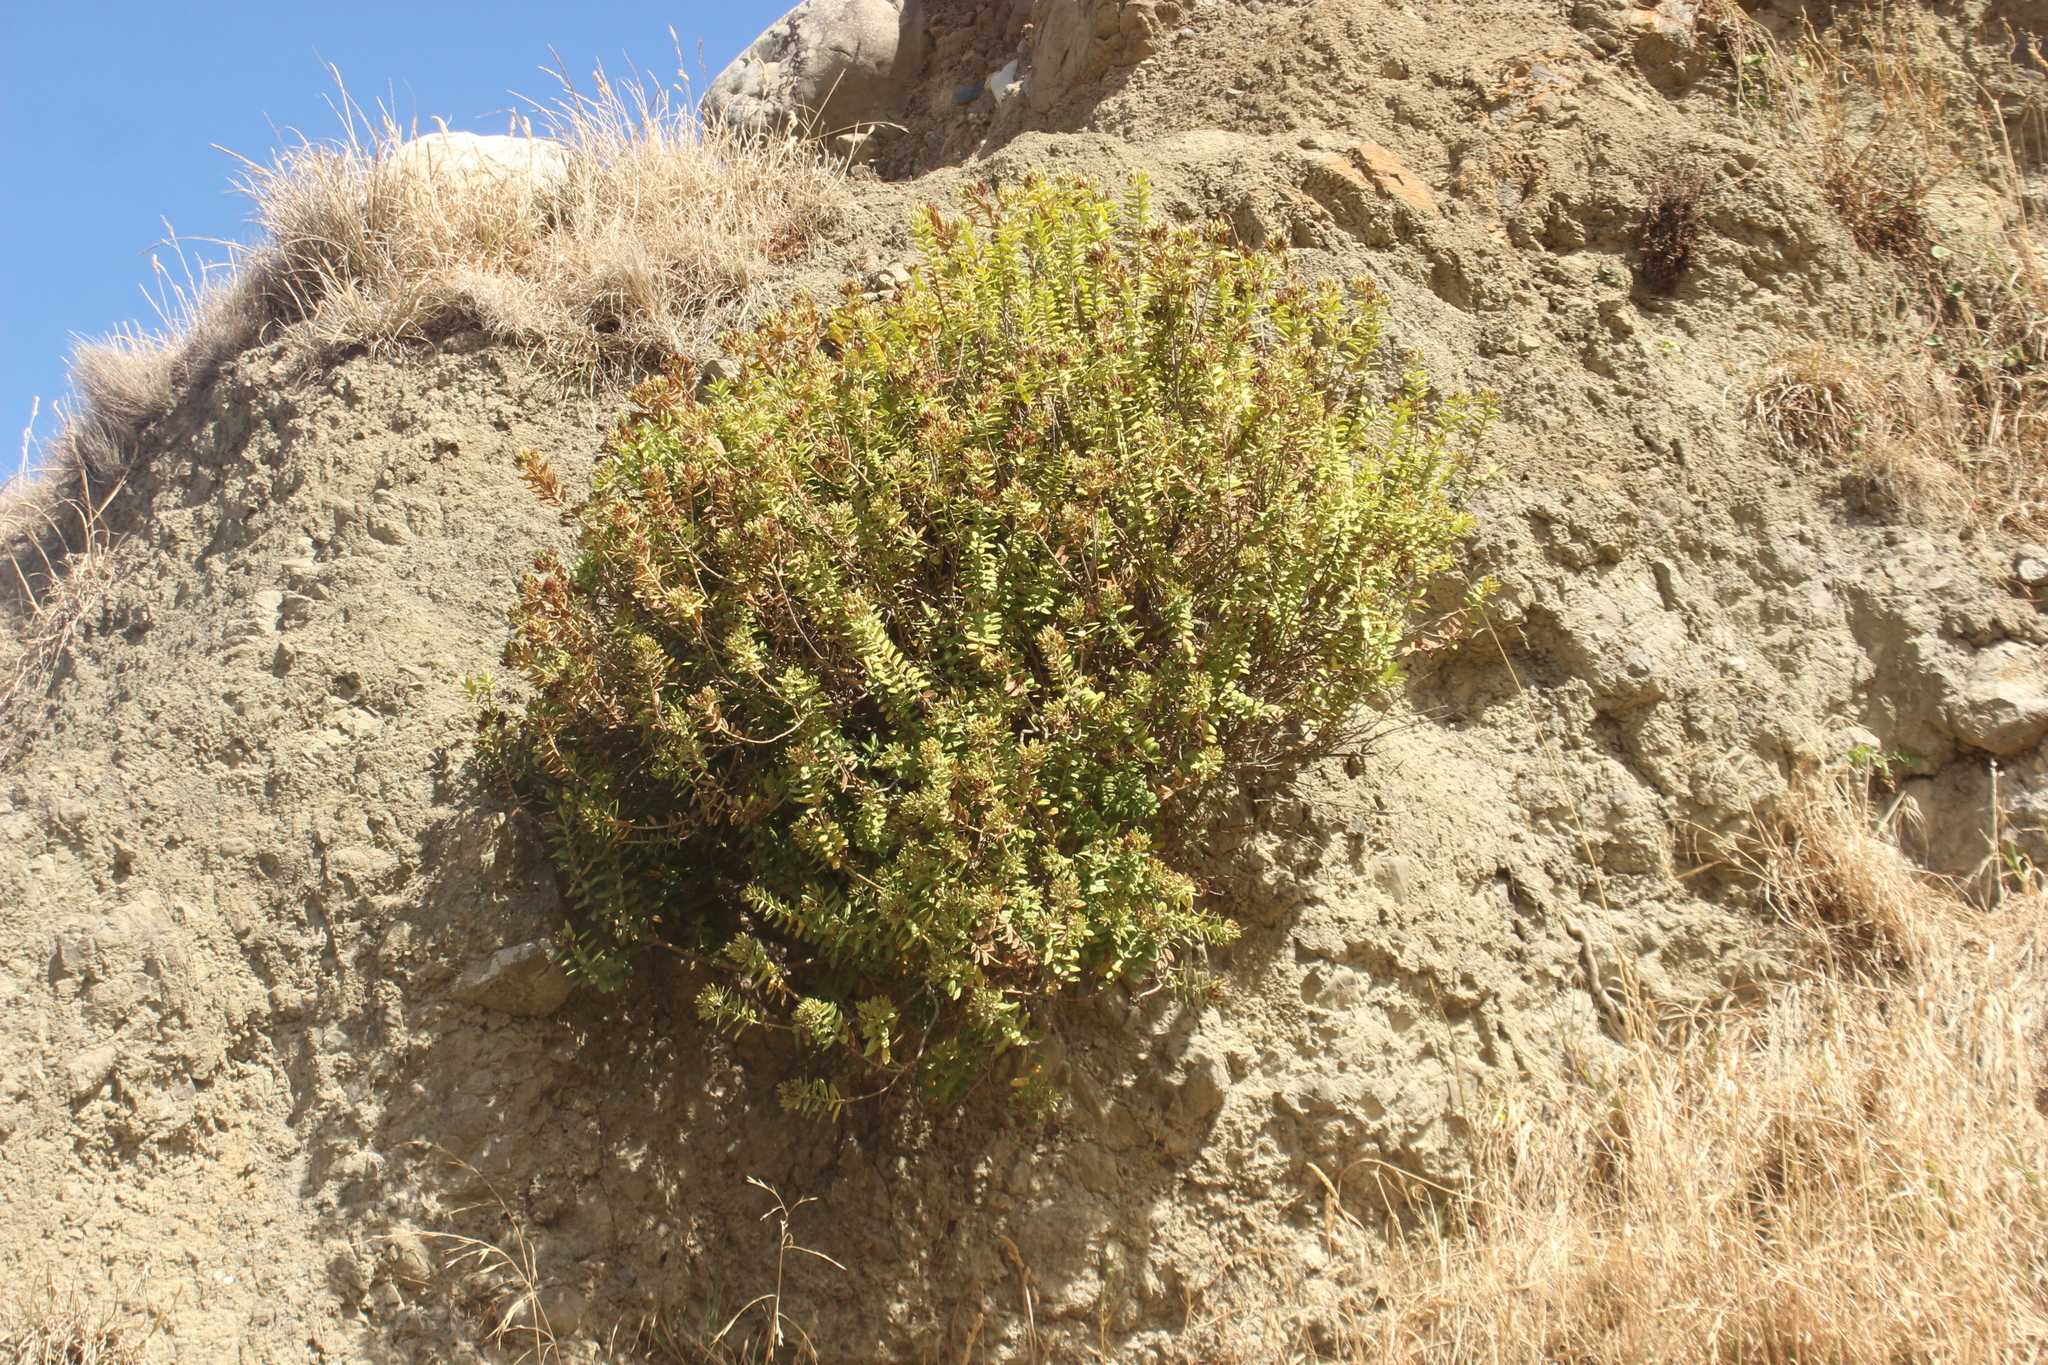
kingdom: Plantae
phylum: Tracheophyta
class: Magnoliopsida
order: Lamiales
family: Plantaginaceae
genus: Veronica
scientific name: Veronica elliptica
